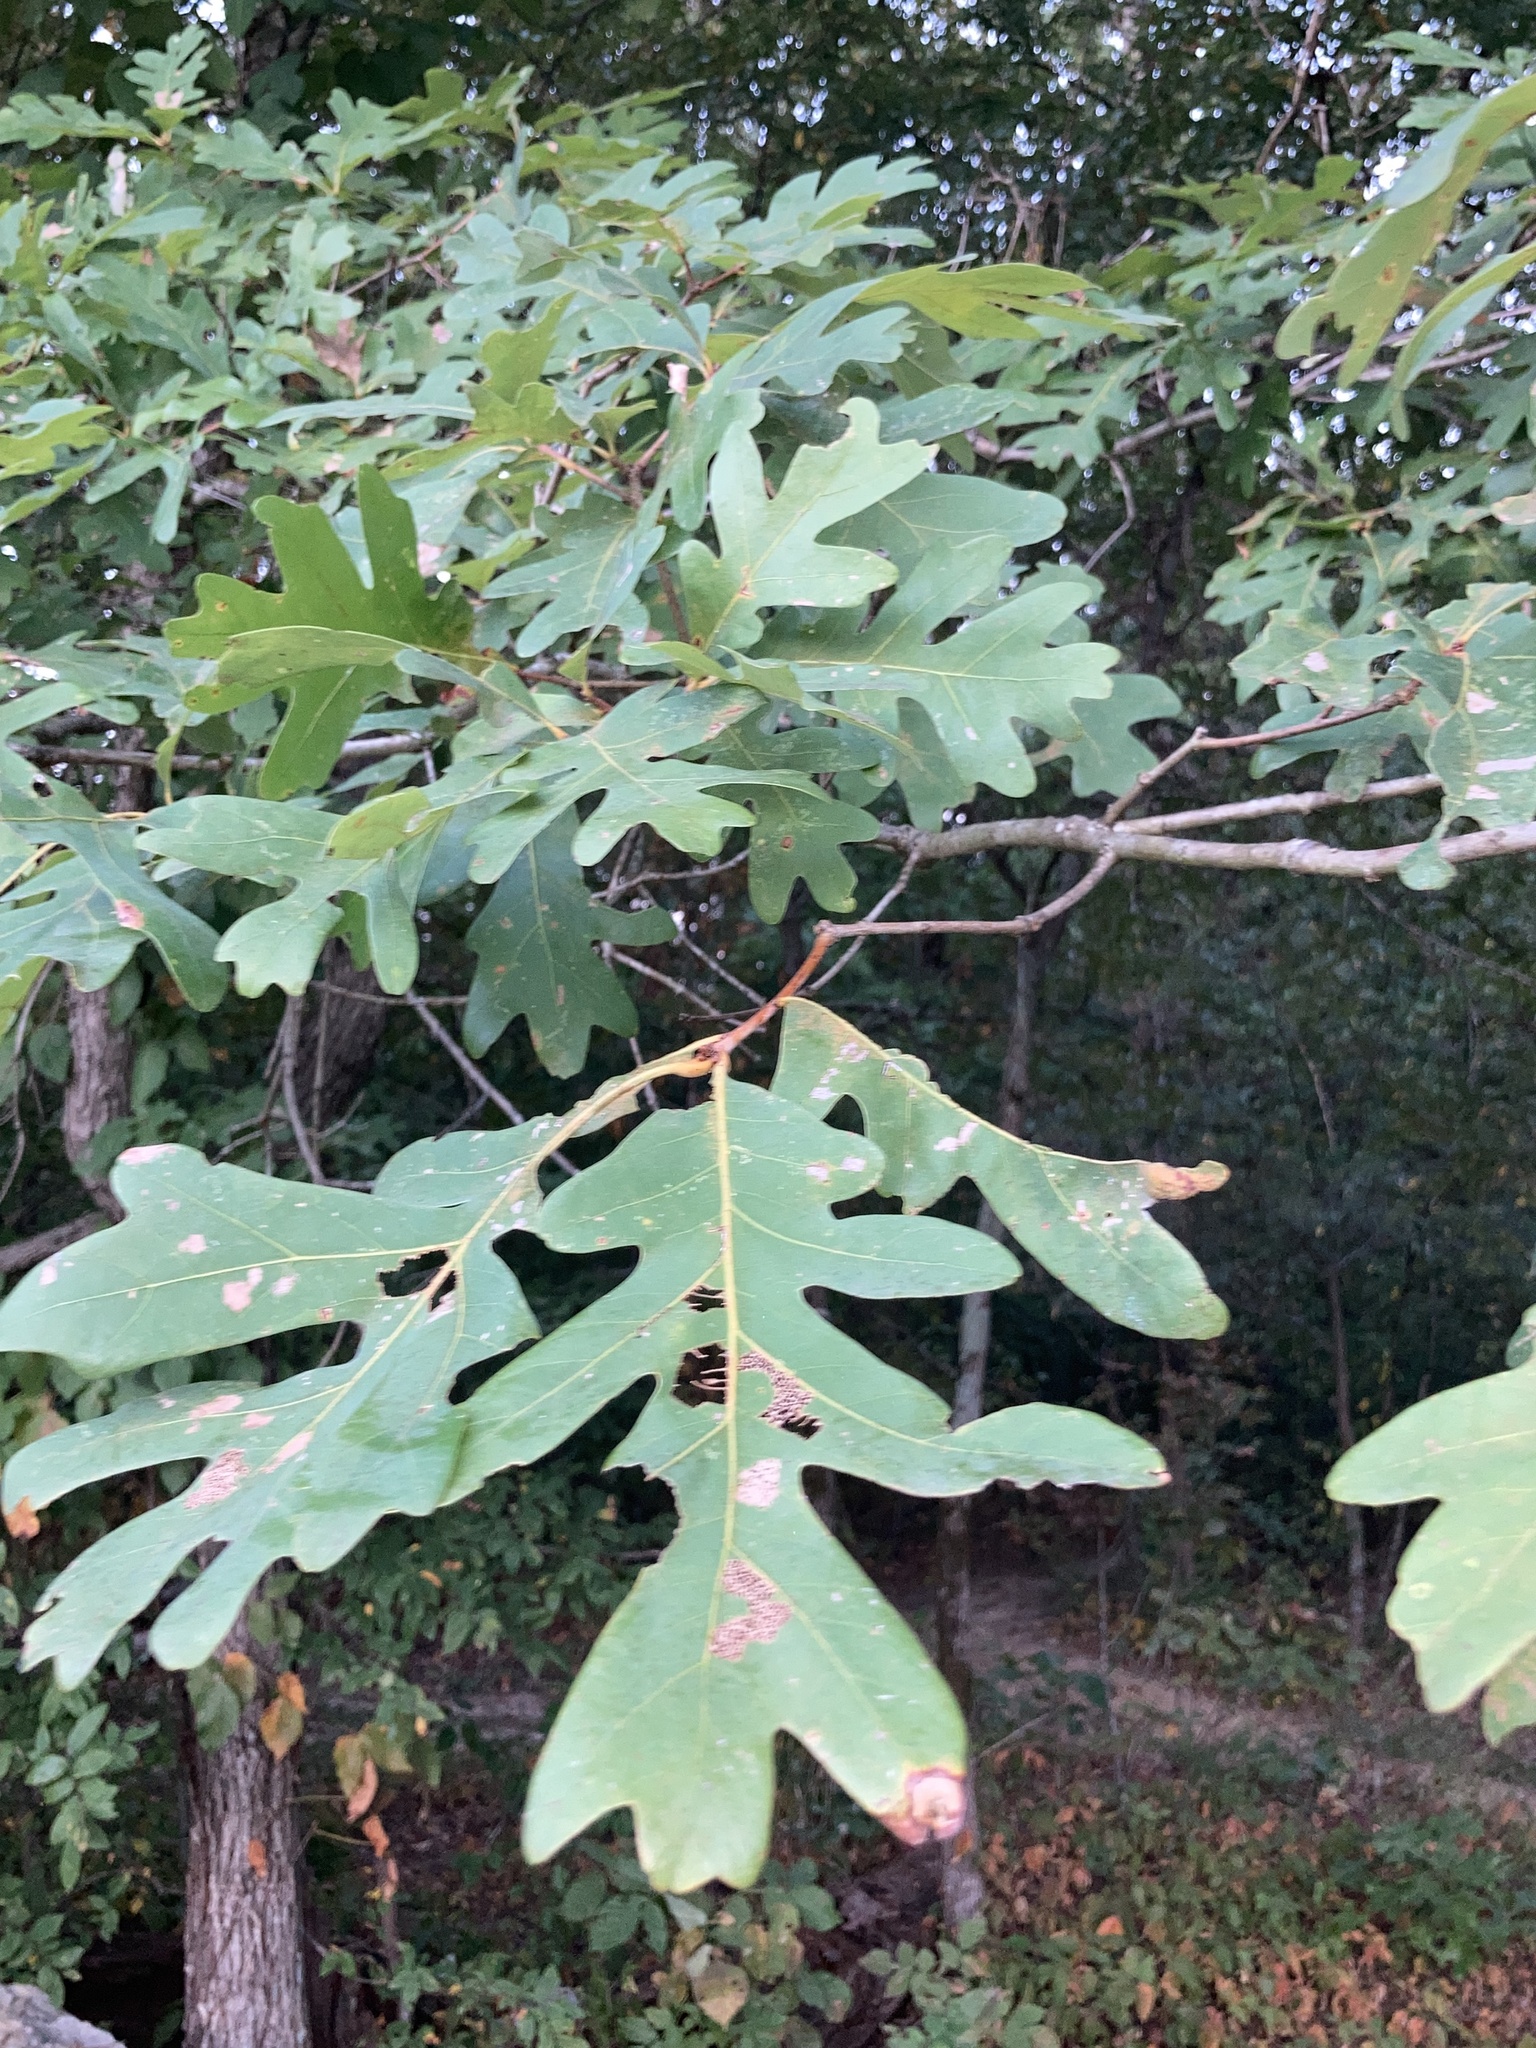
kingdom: Plantae
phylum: Tracheophyta
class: Magnoliopsida
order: Fagales
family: Fagaceae
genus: Quercus
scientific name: Quercus alba
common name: White oak
